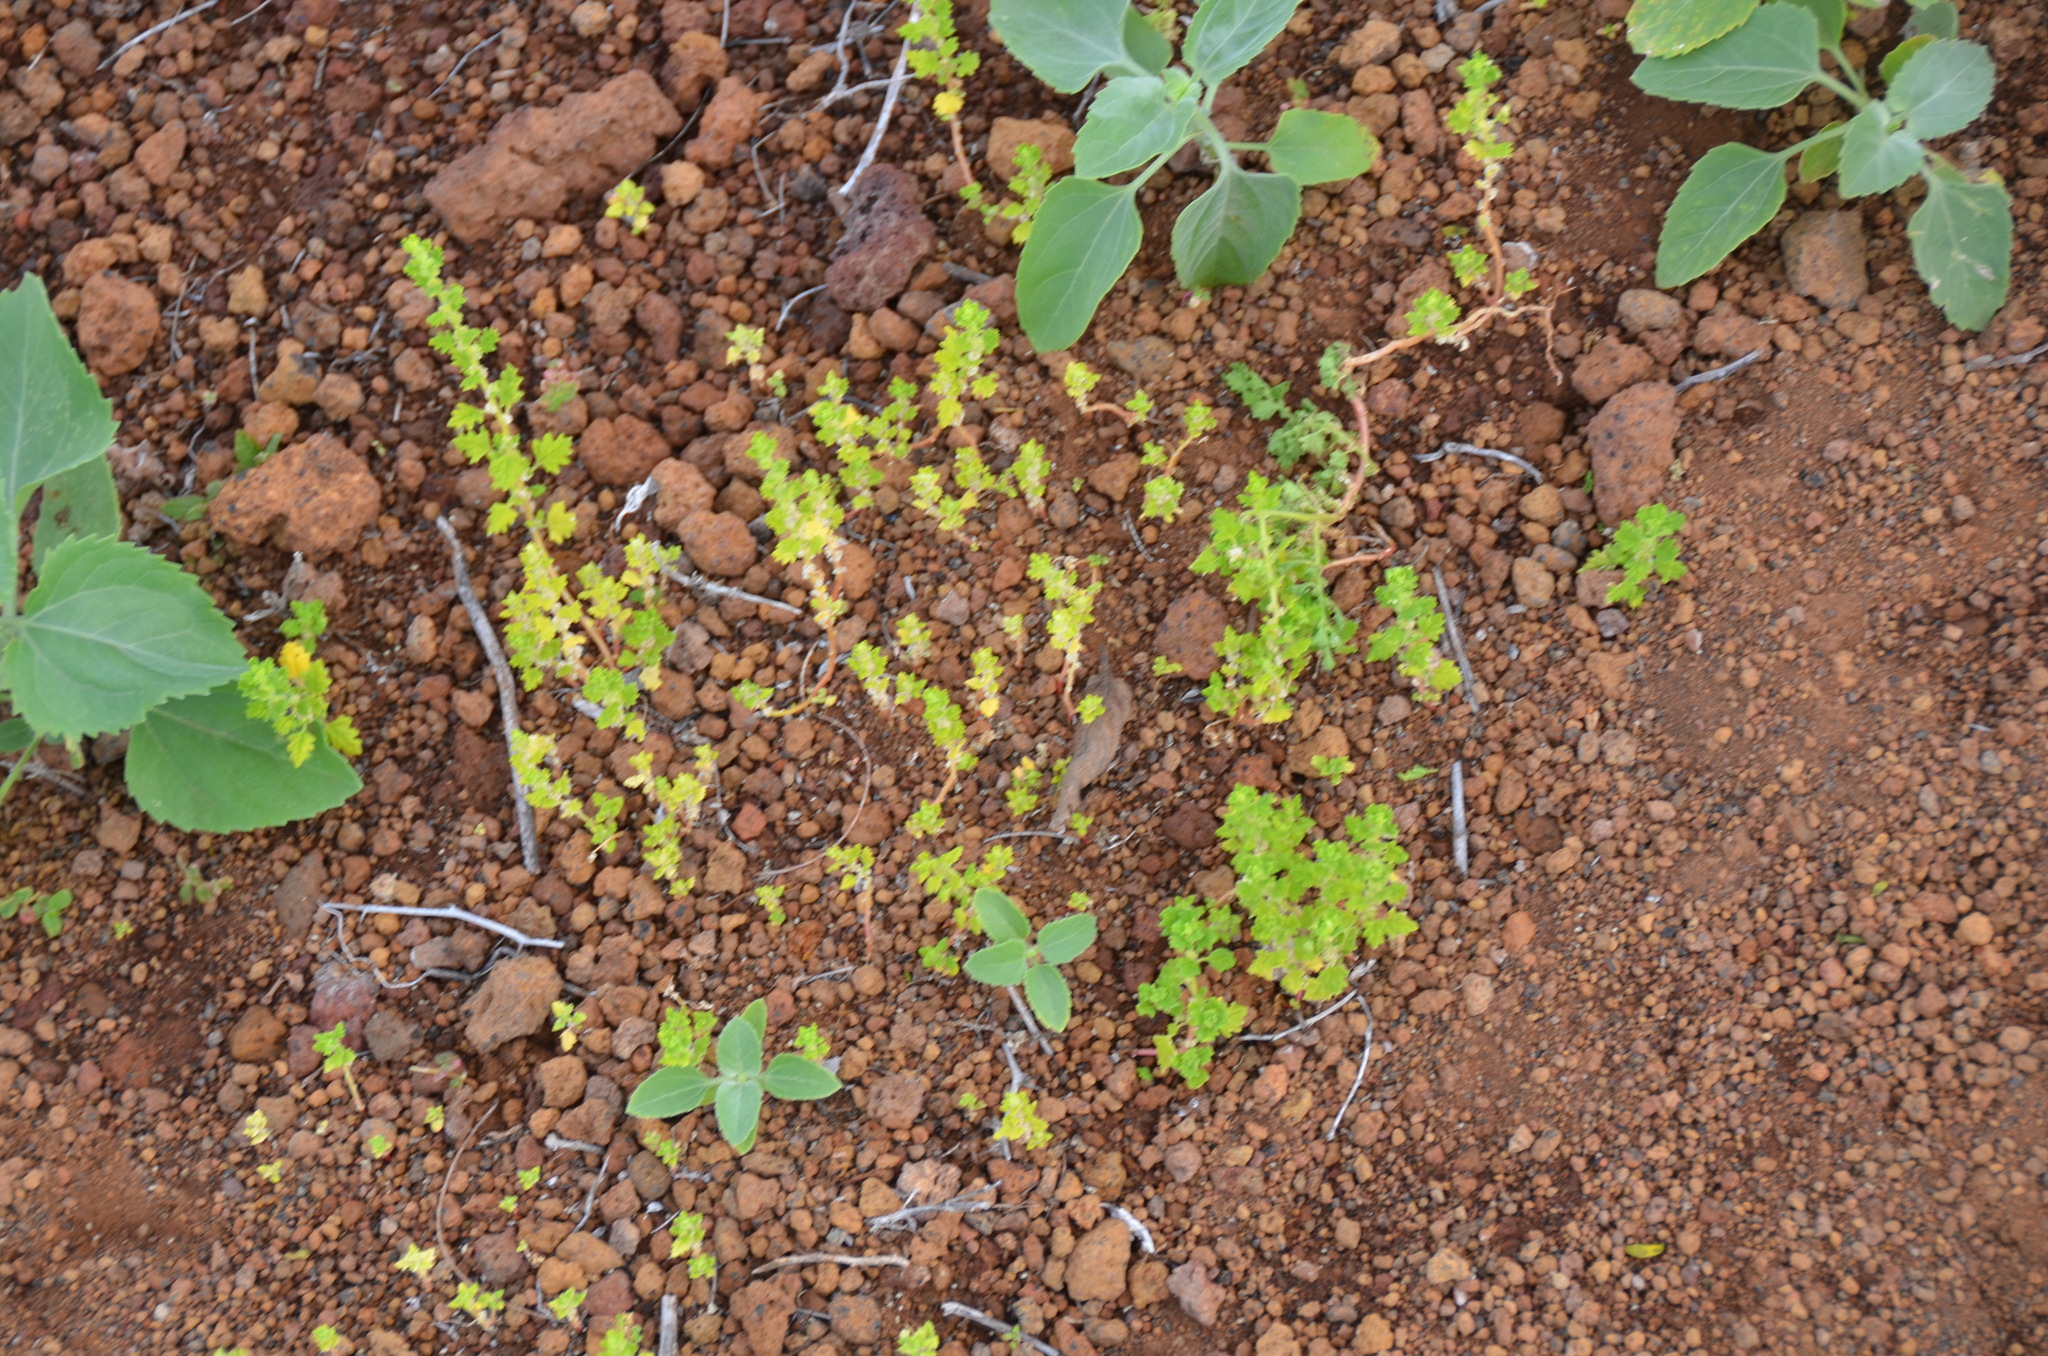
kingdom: Plantae
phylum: Tracheophyta
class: Magnoliopsida
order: Caryophyllales
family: Amaranthaceae
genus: Dysphania
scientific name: Dysphania carinata
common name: Keeled wormseed
